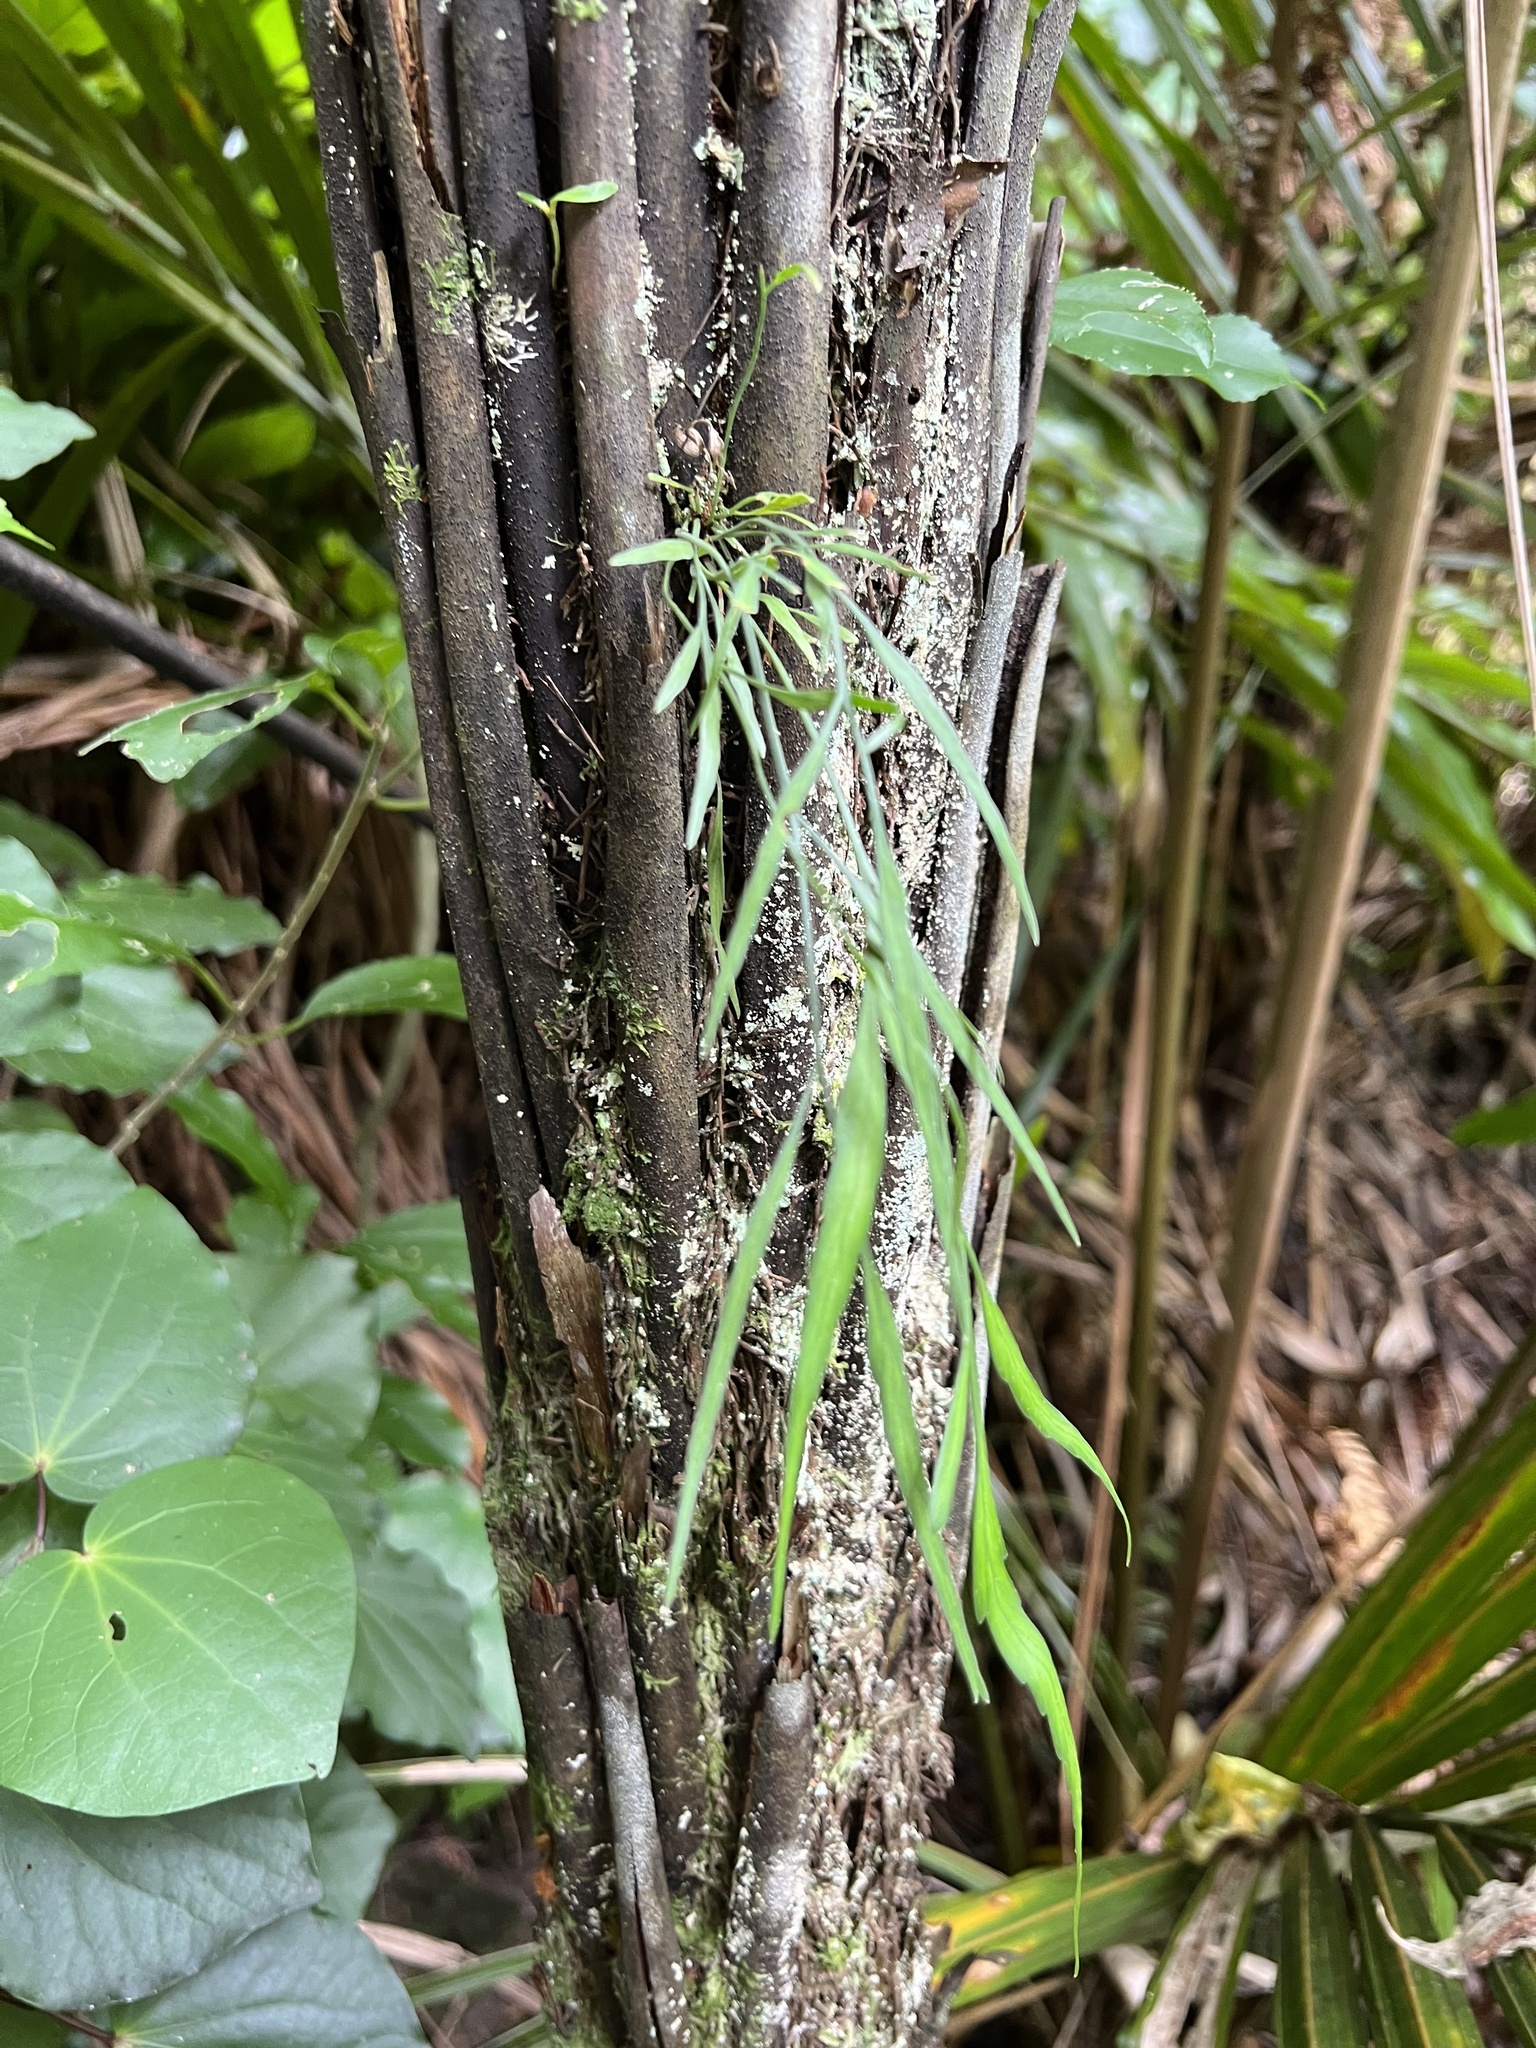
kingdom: Plantae
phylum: Tracheophyta
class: Polypodiopsida
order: Polypodiales
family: Aspleniaceae
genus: Asplenium
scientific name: Asplenium flaccidum
